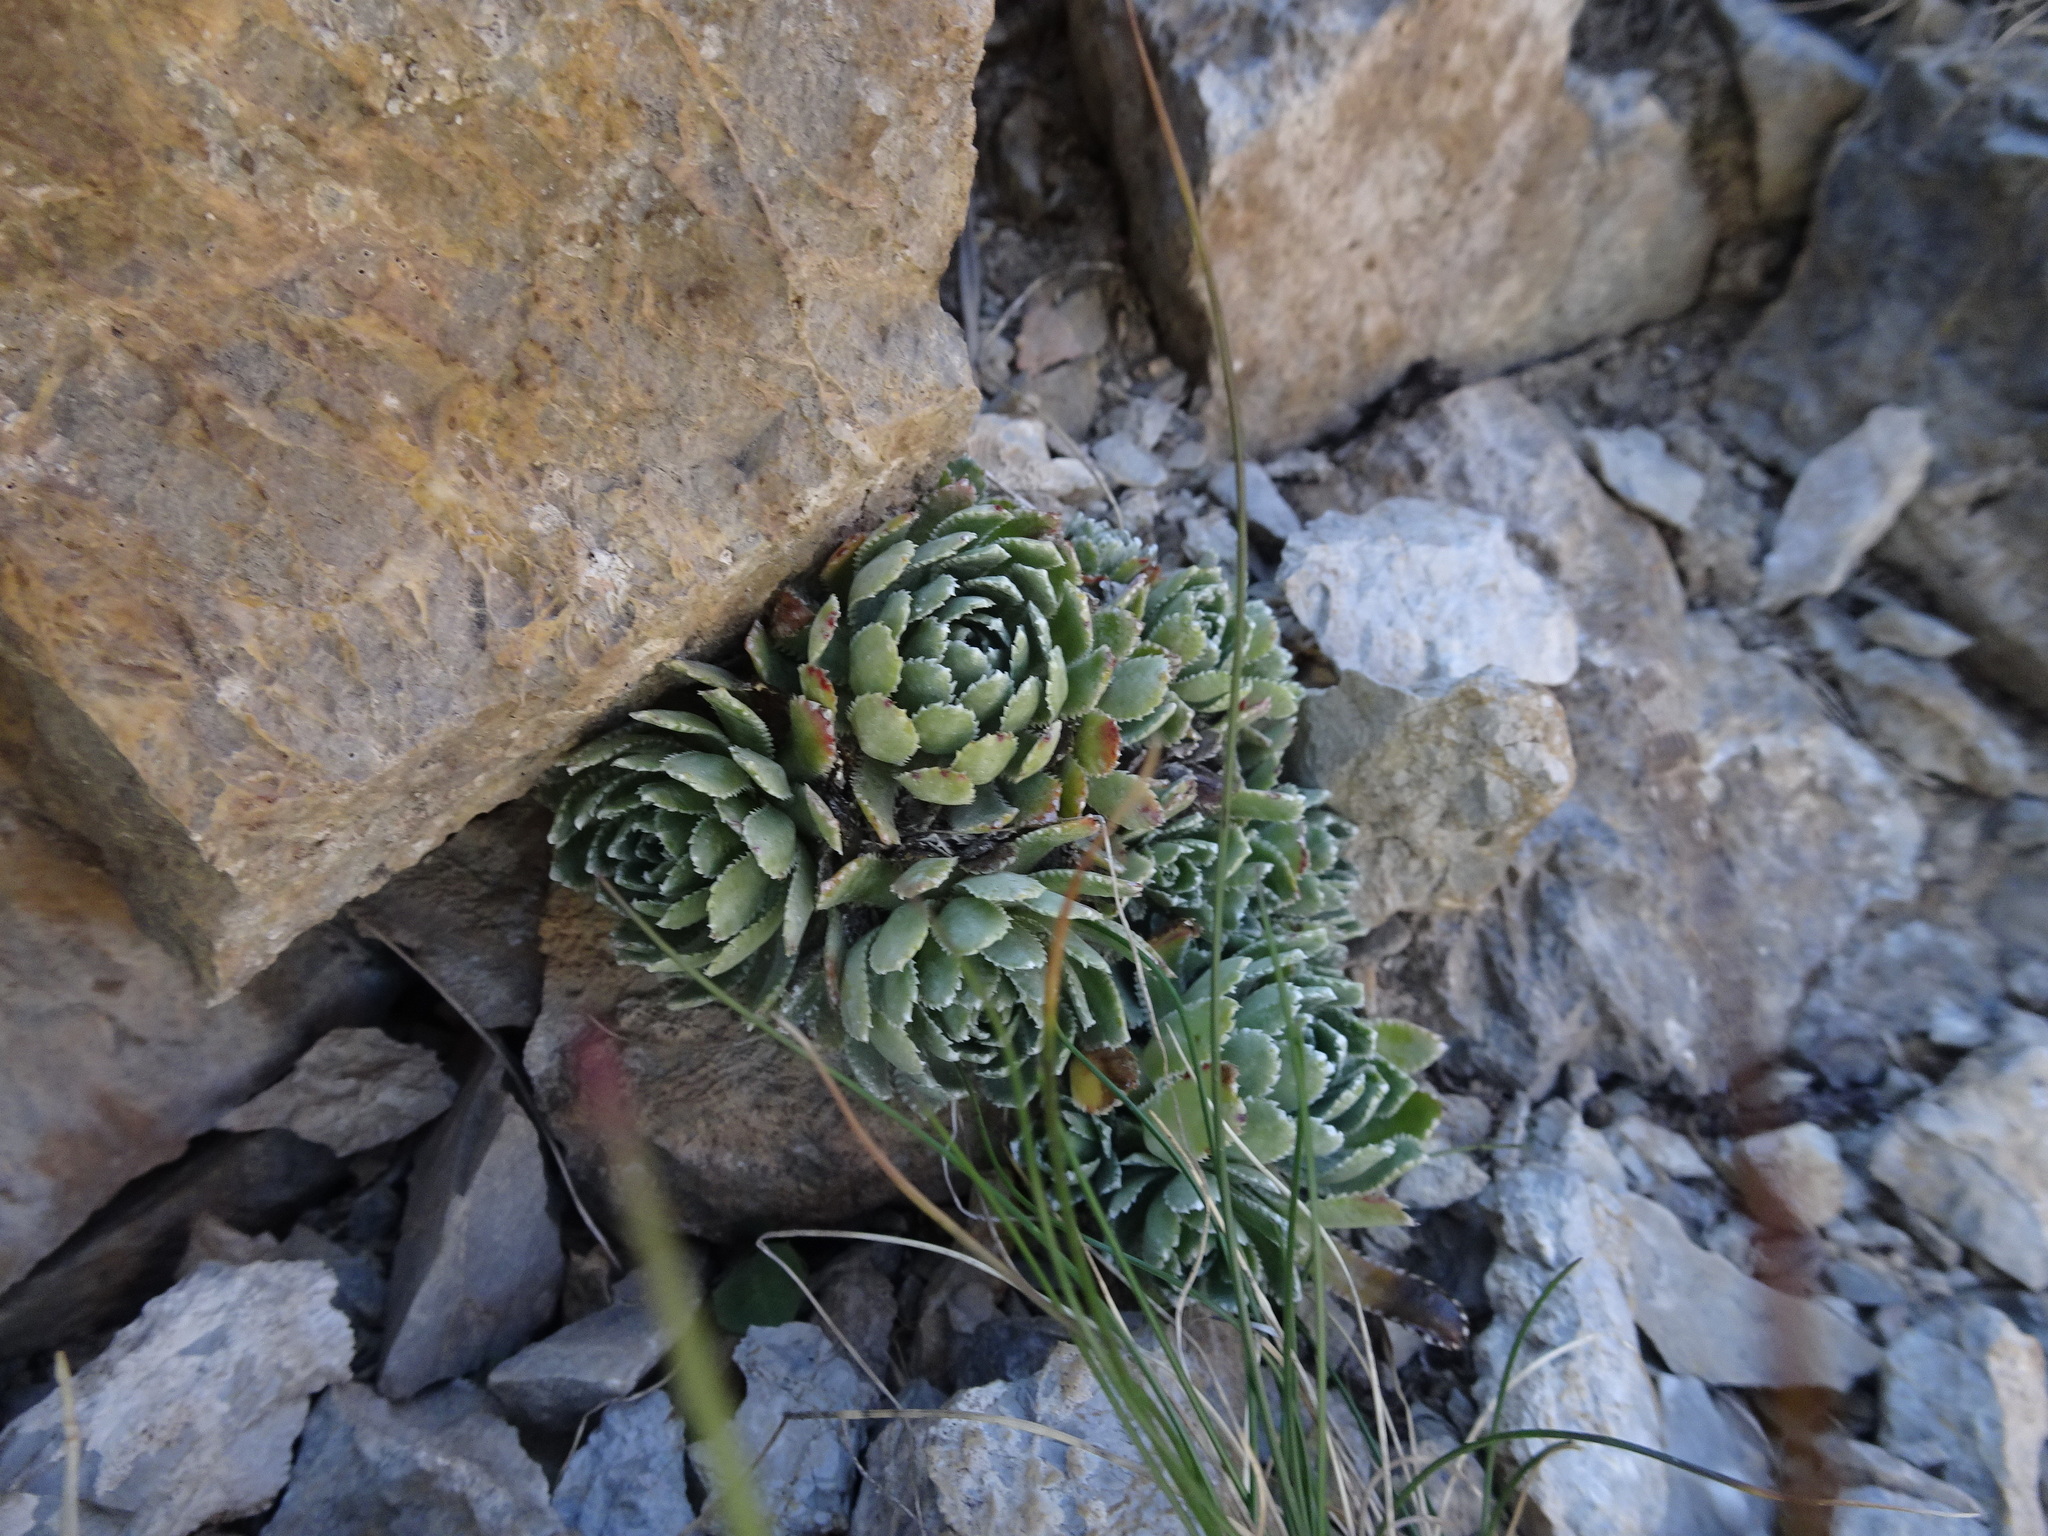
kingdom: Plantae
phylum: Tracheophyta
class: Magnoliopsida
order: Saxifragales
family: Saxifragaceae
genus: Saxifraga
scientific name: Saxifraga paniculata
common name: Livelong saxifrage
